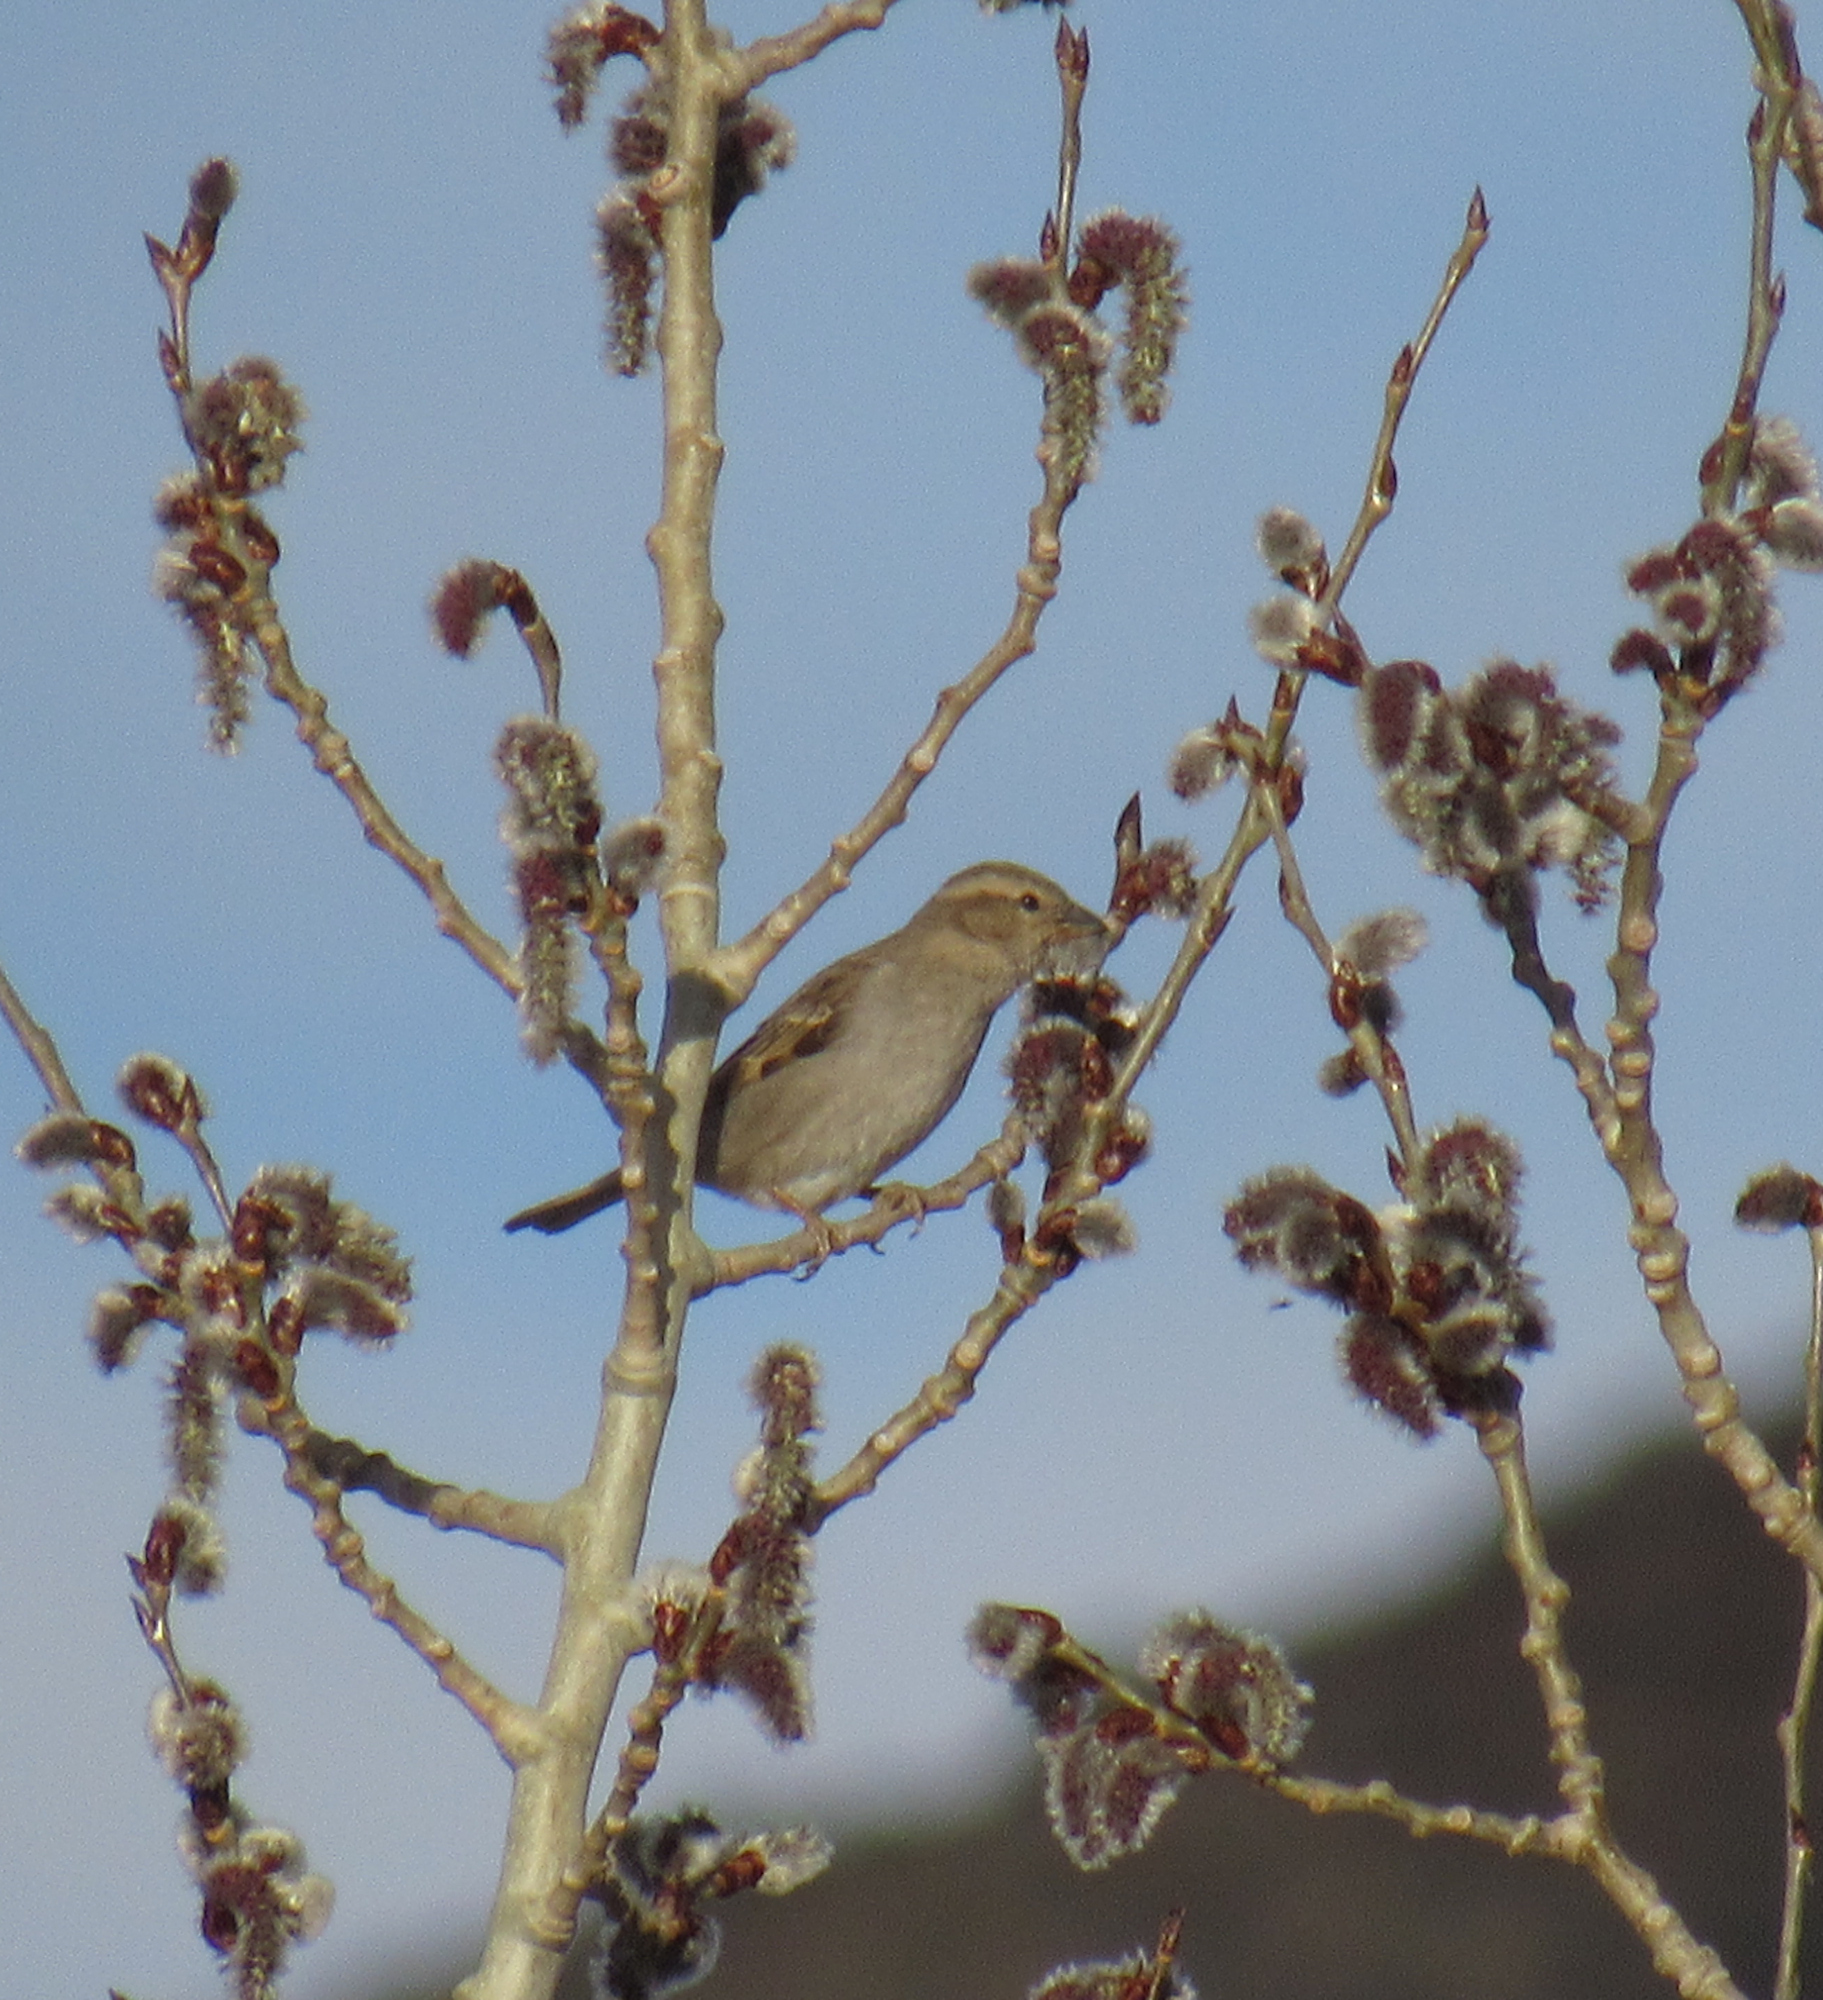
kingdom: Animalia
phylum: Chordata
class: Aves
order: Passeriformes
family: Passeridae
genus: Passer
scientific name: Passer domesticus
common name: House sparrow
